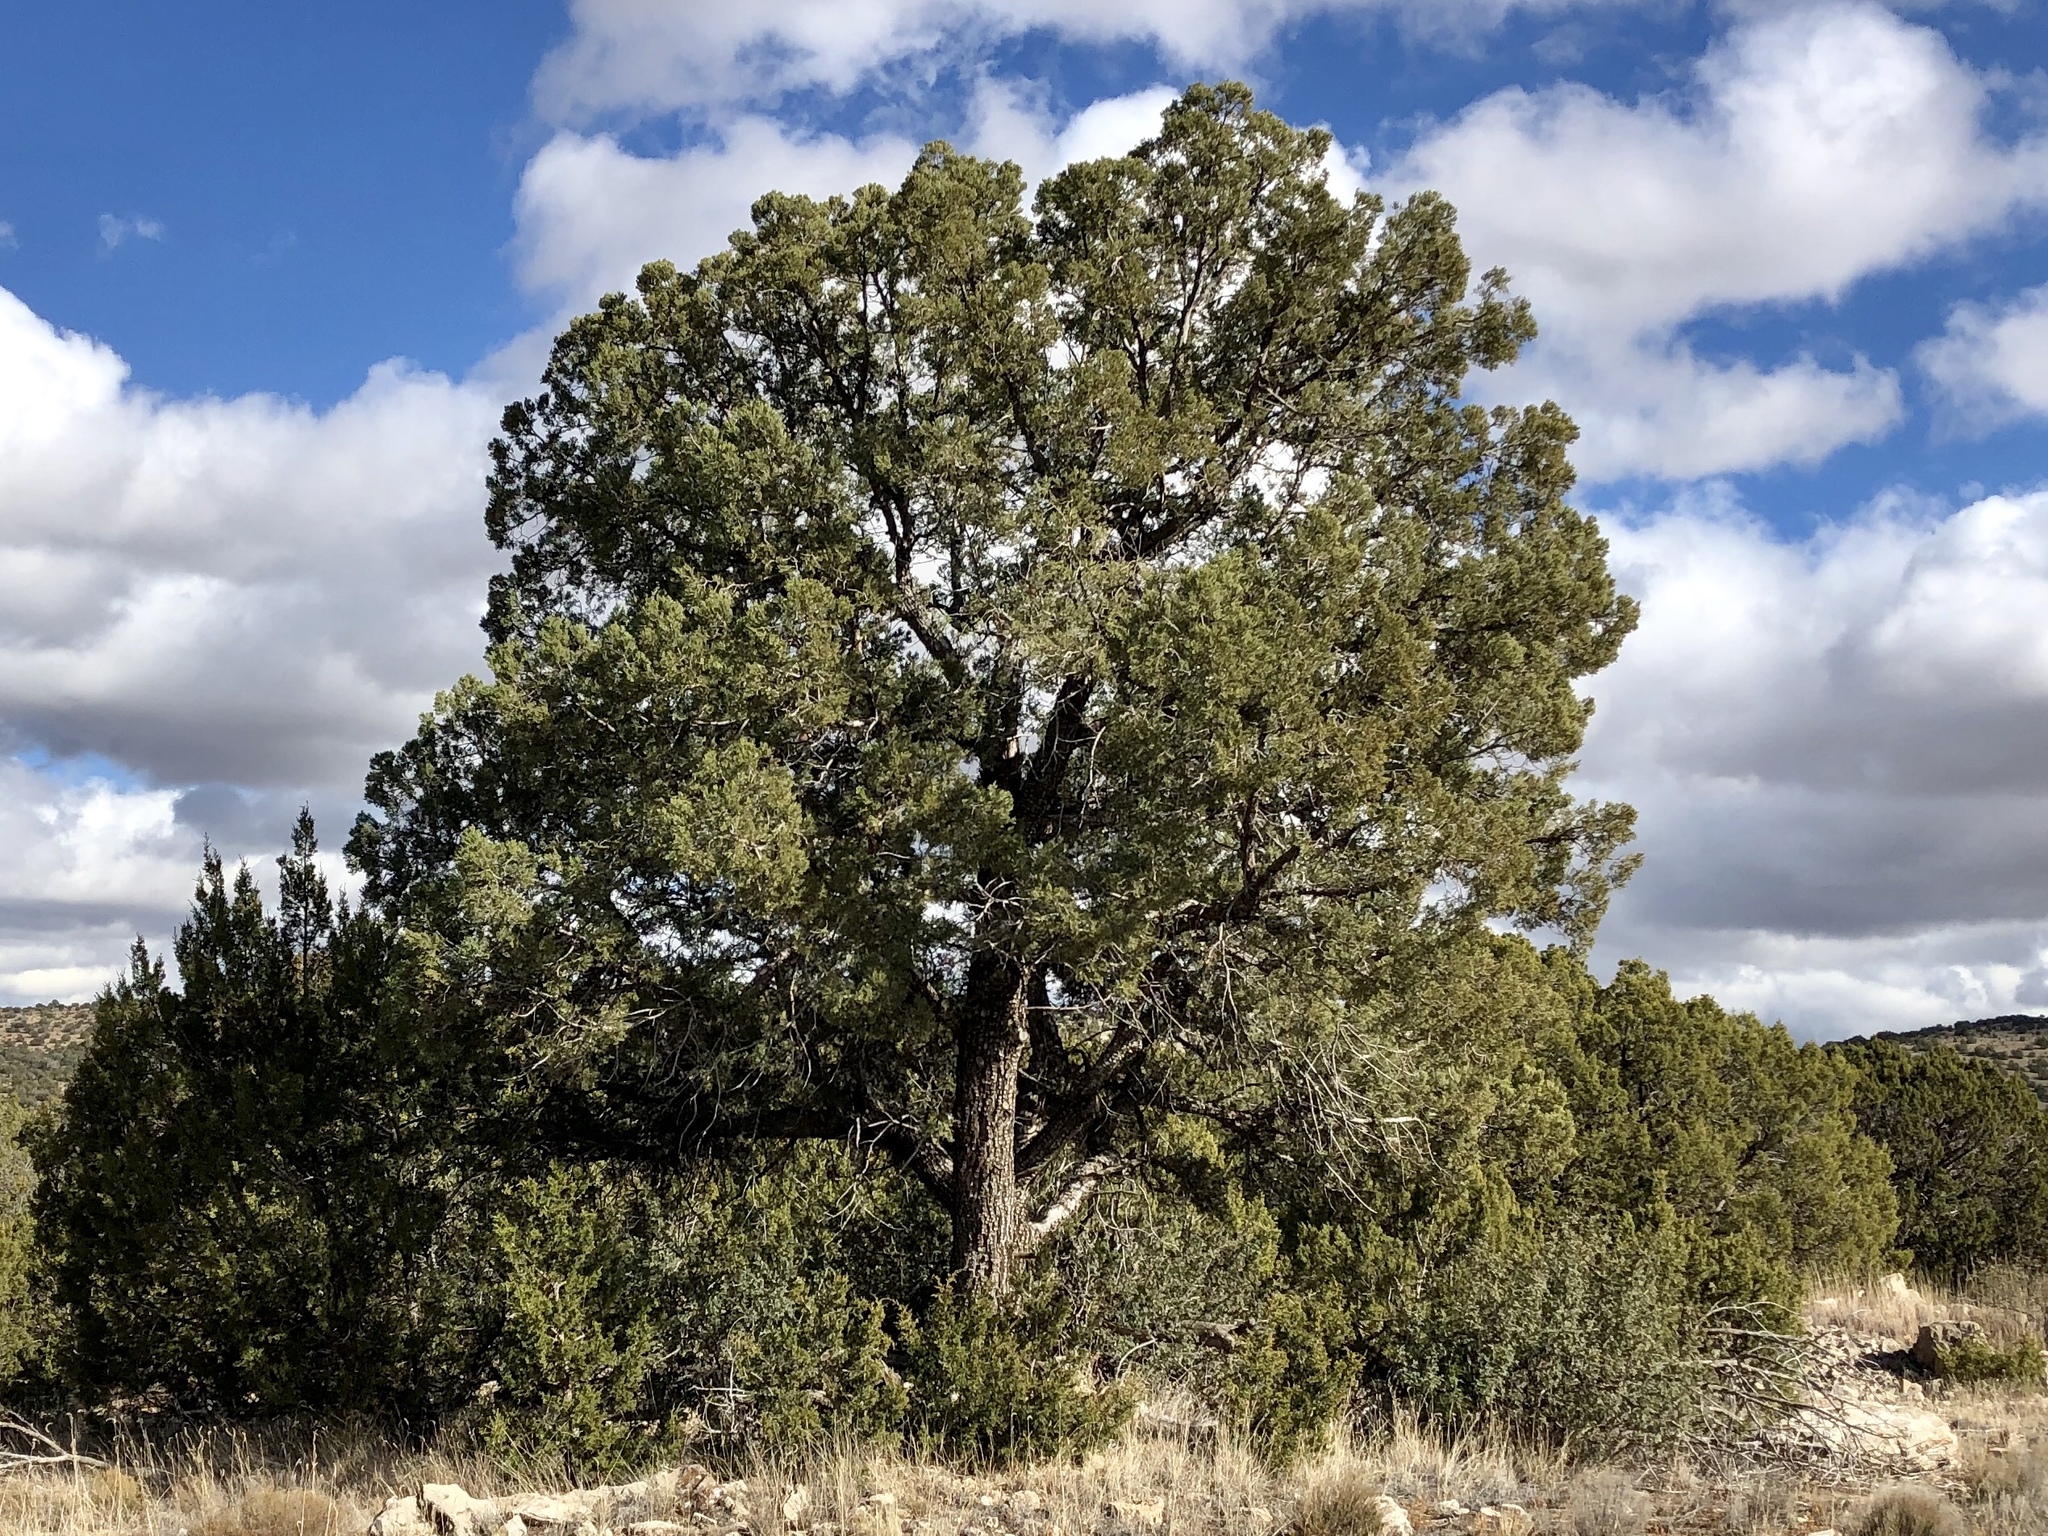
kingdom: Plantae
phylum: Tracheophyta
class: Pinopsida
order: Pinales
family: Pinaceae
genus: Pinus
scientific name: Pinus edulis
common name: Colorado pinyon
